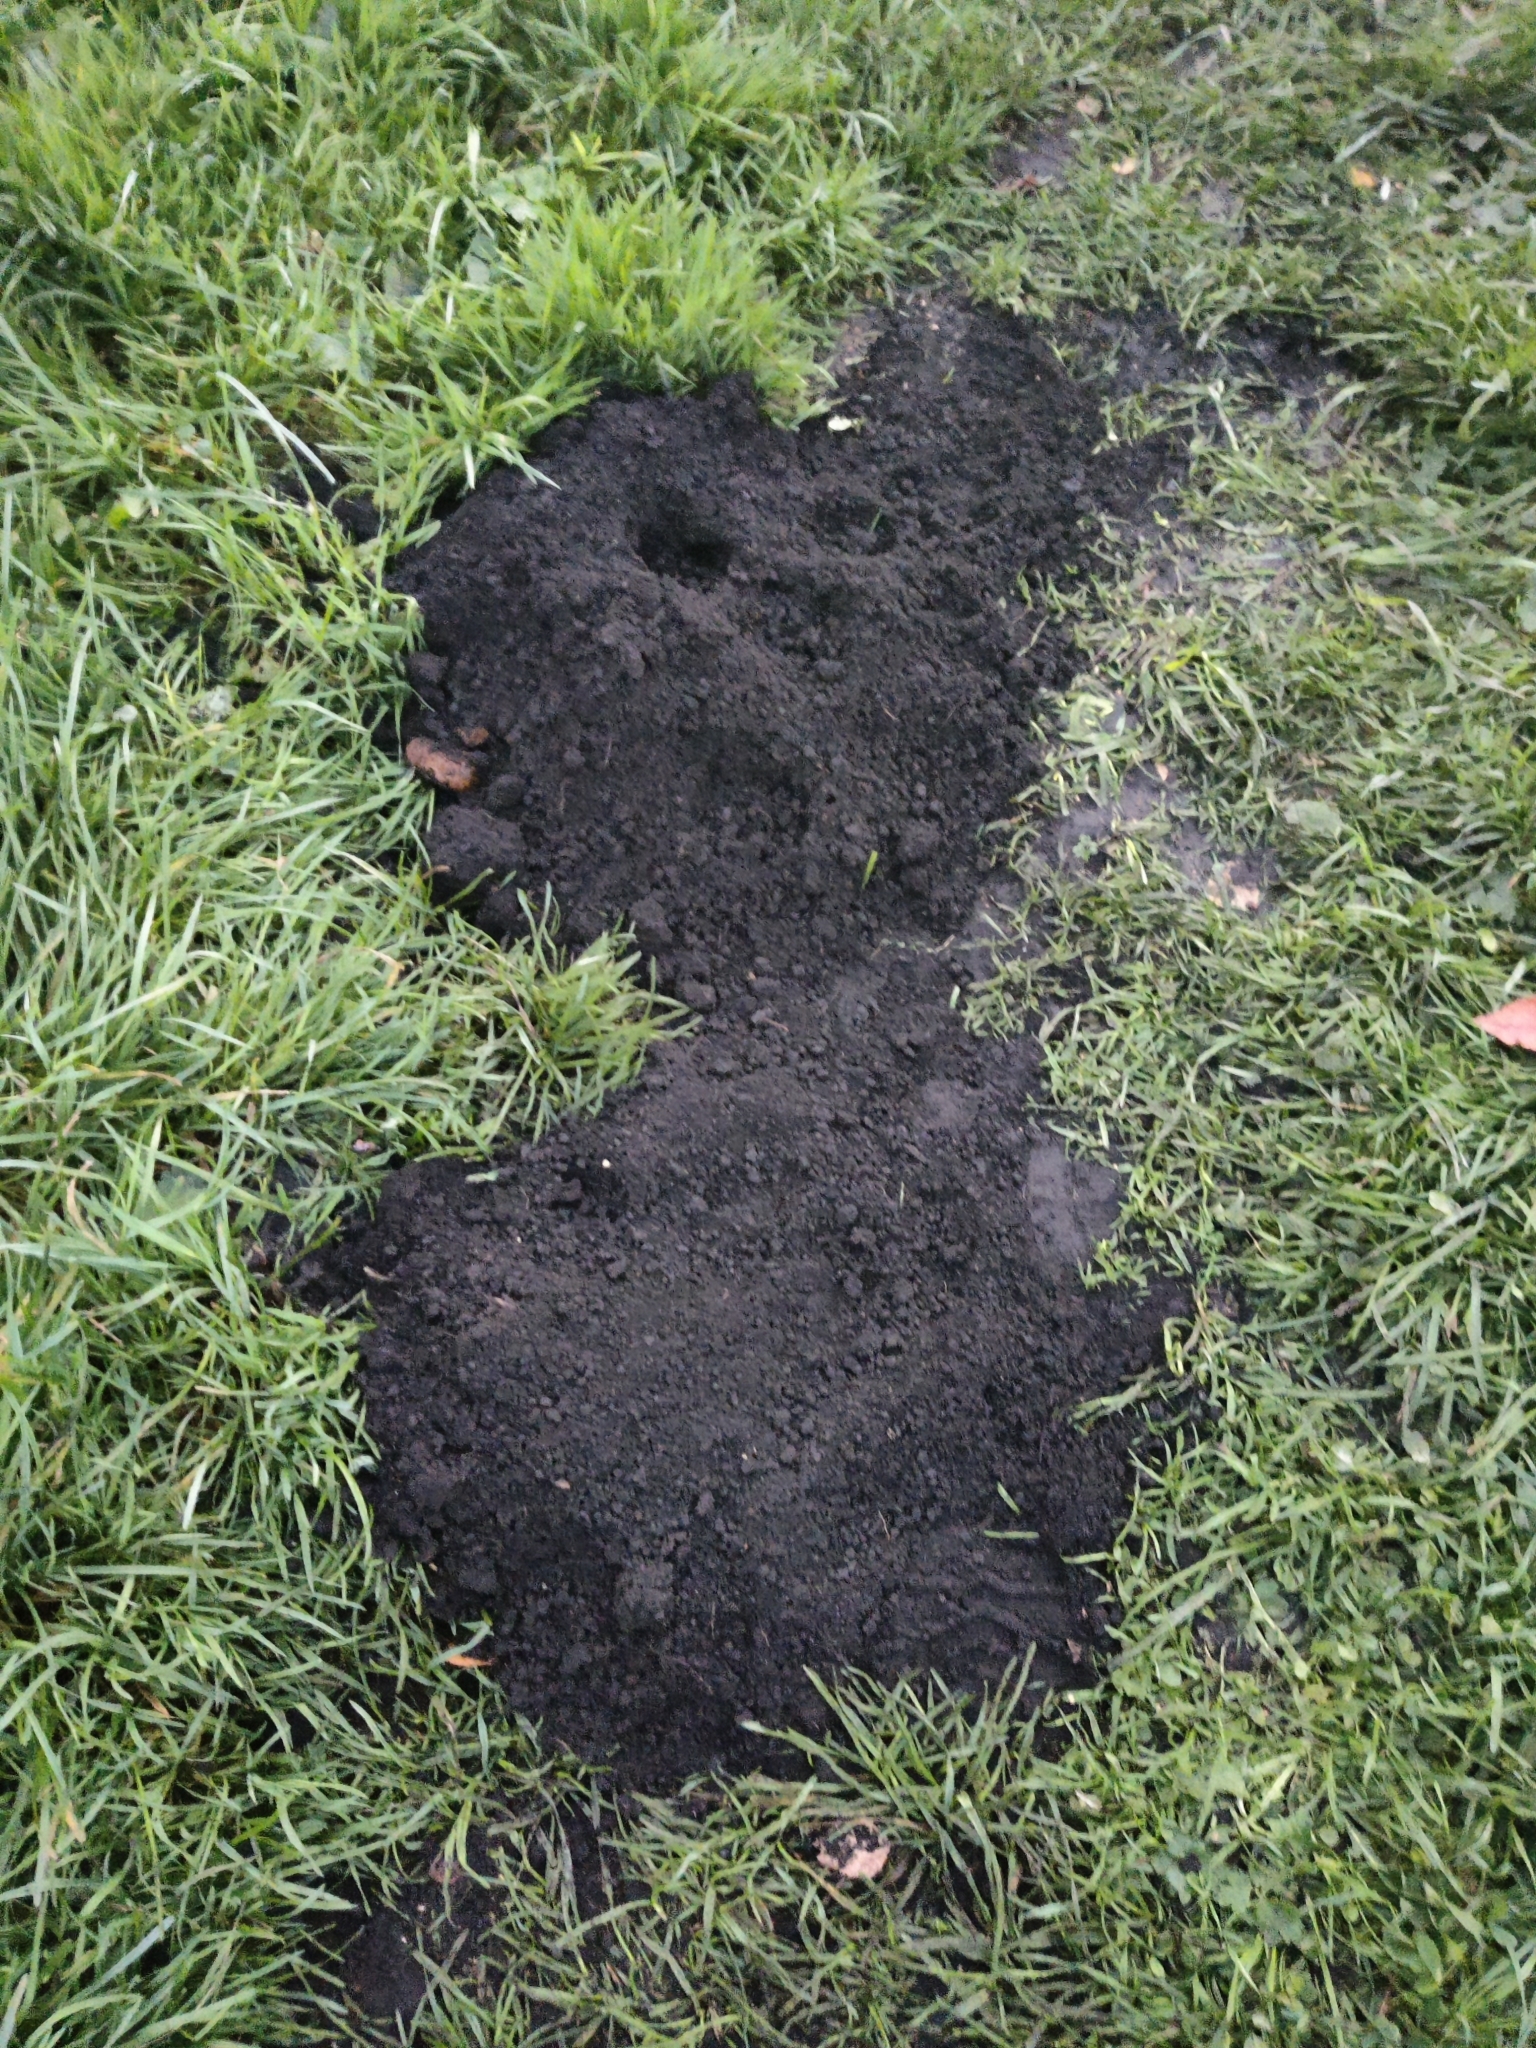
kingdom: Animalia
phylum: Chordata
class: Mammalia
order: Soricomorpha
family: Talpidae
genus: Talpa
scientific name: Talpa europaea
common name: European mole
